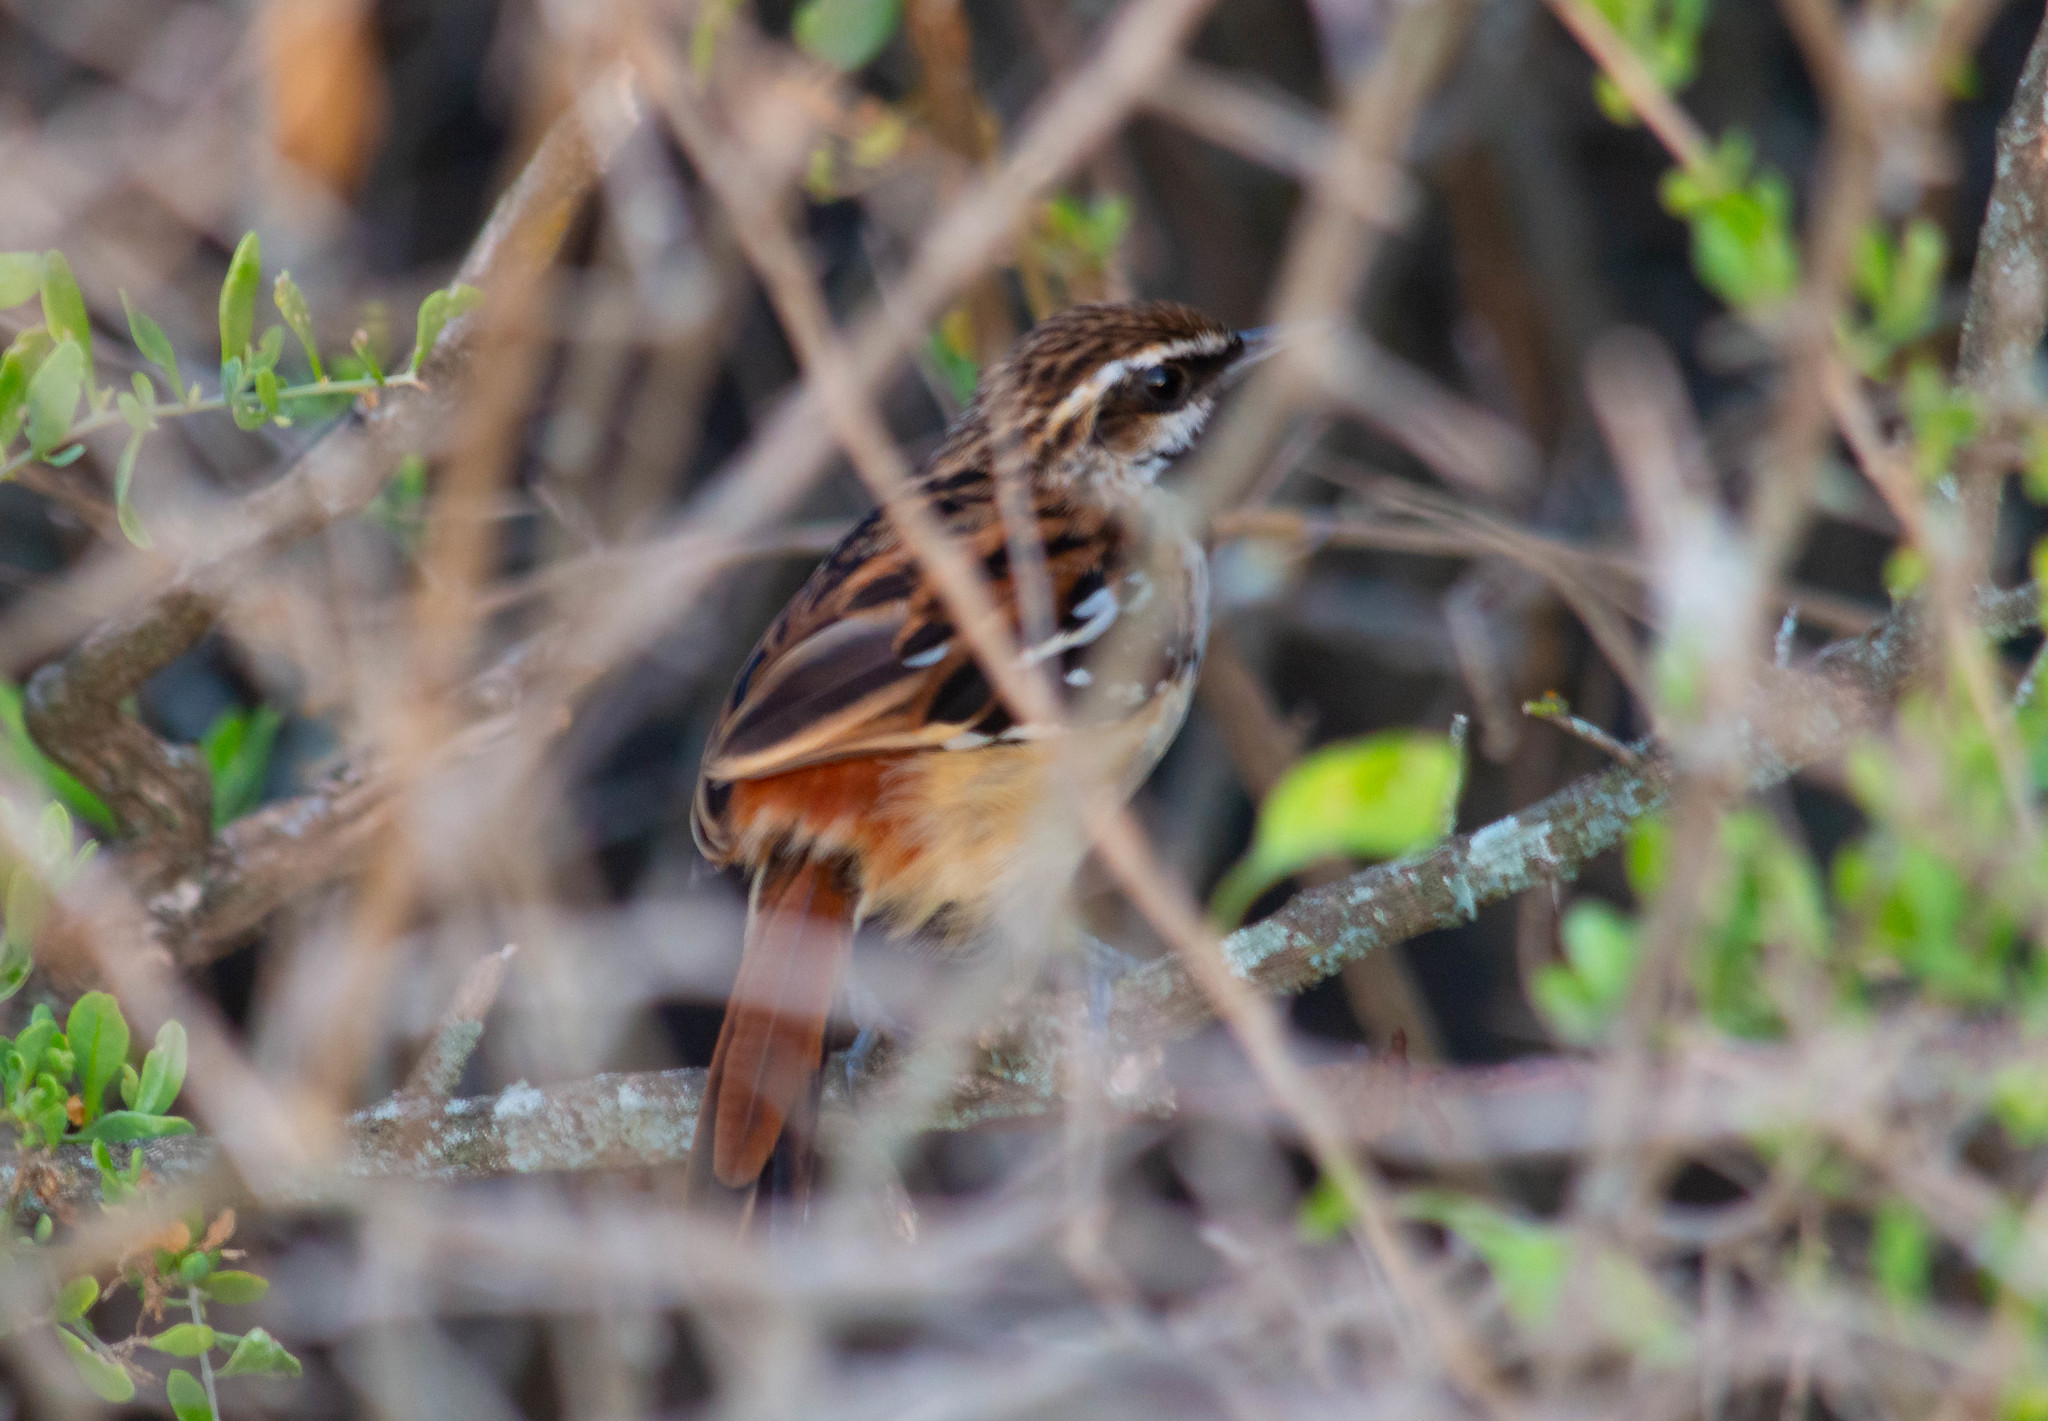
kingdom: Animalia
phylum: Chordata
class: Aves
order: Passeriformes
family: Thamnophilidae
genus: Myrmorchilus
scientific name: Myrmorchilus strigilatus
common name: Stripe-backed antbird
